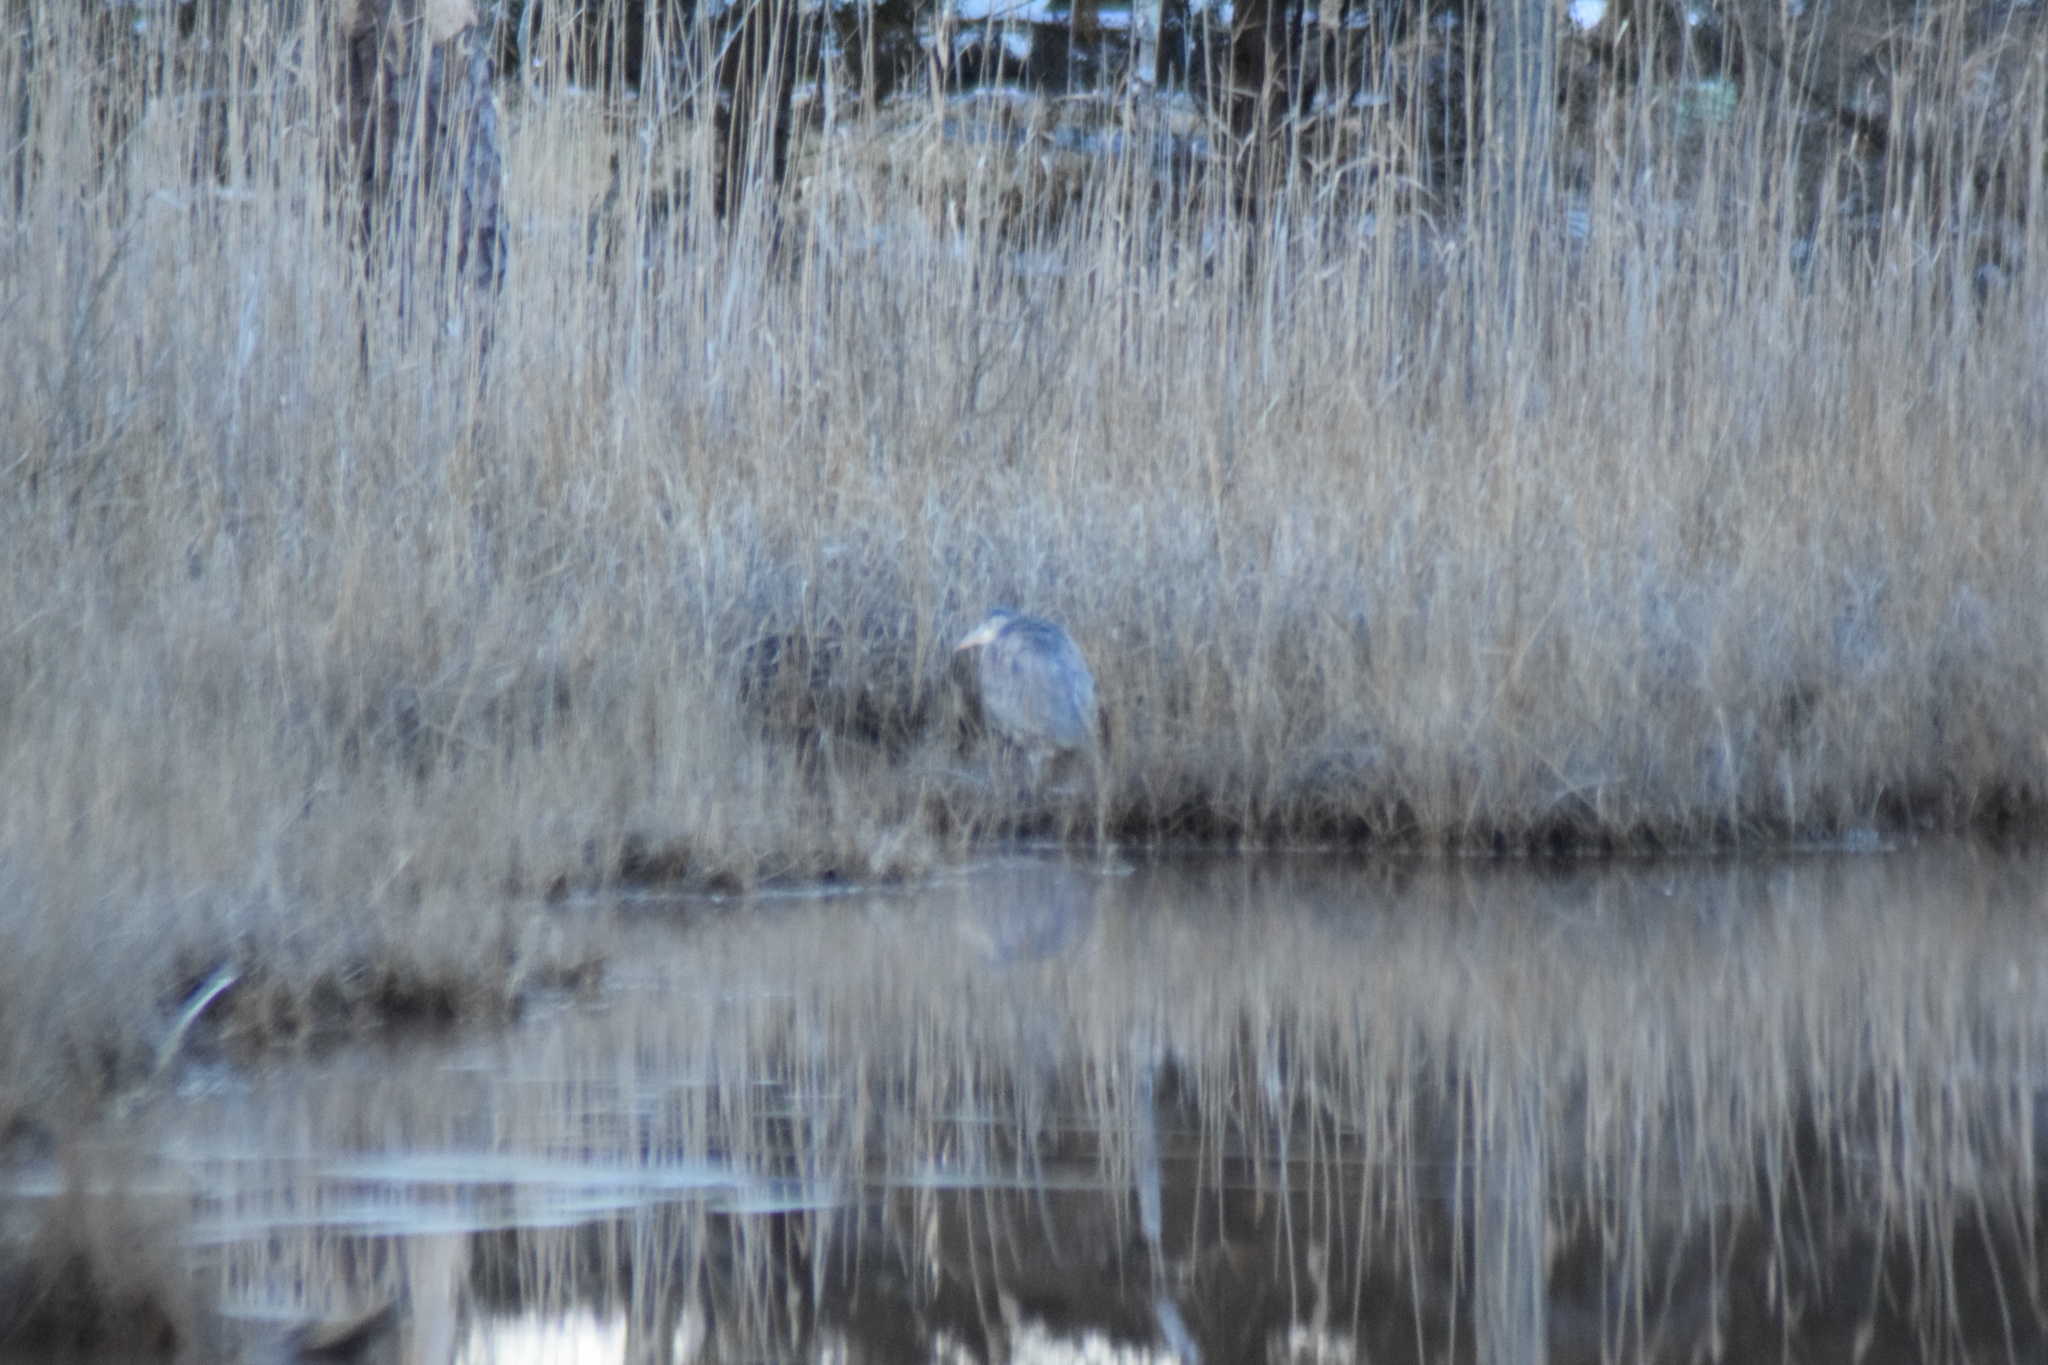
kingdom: Animalia
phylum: Chordata
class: Aves
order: Pelecaniformes
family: Ardeidae
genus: Ardea
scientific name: Ardea herodias
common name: Great blue heron
